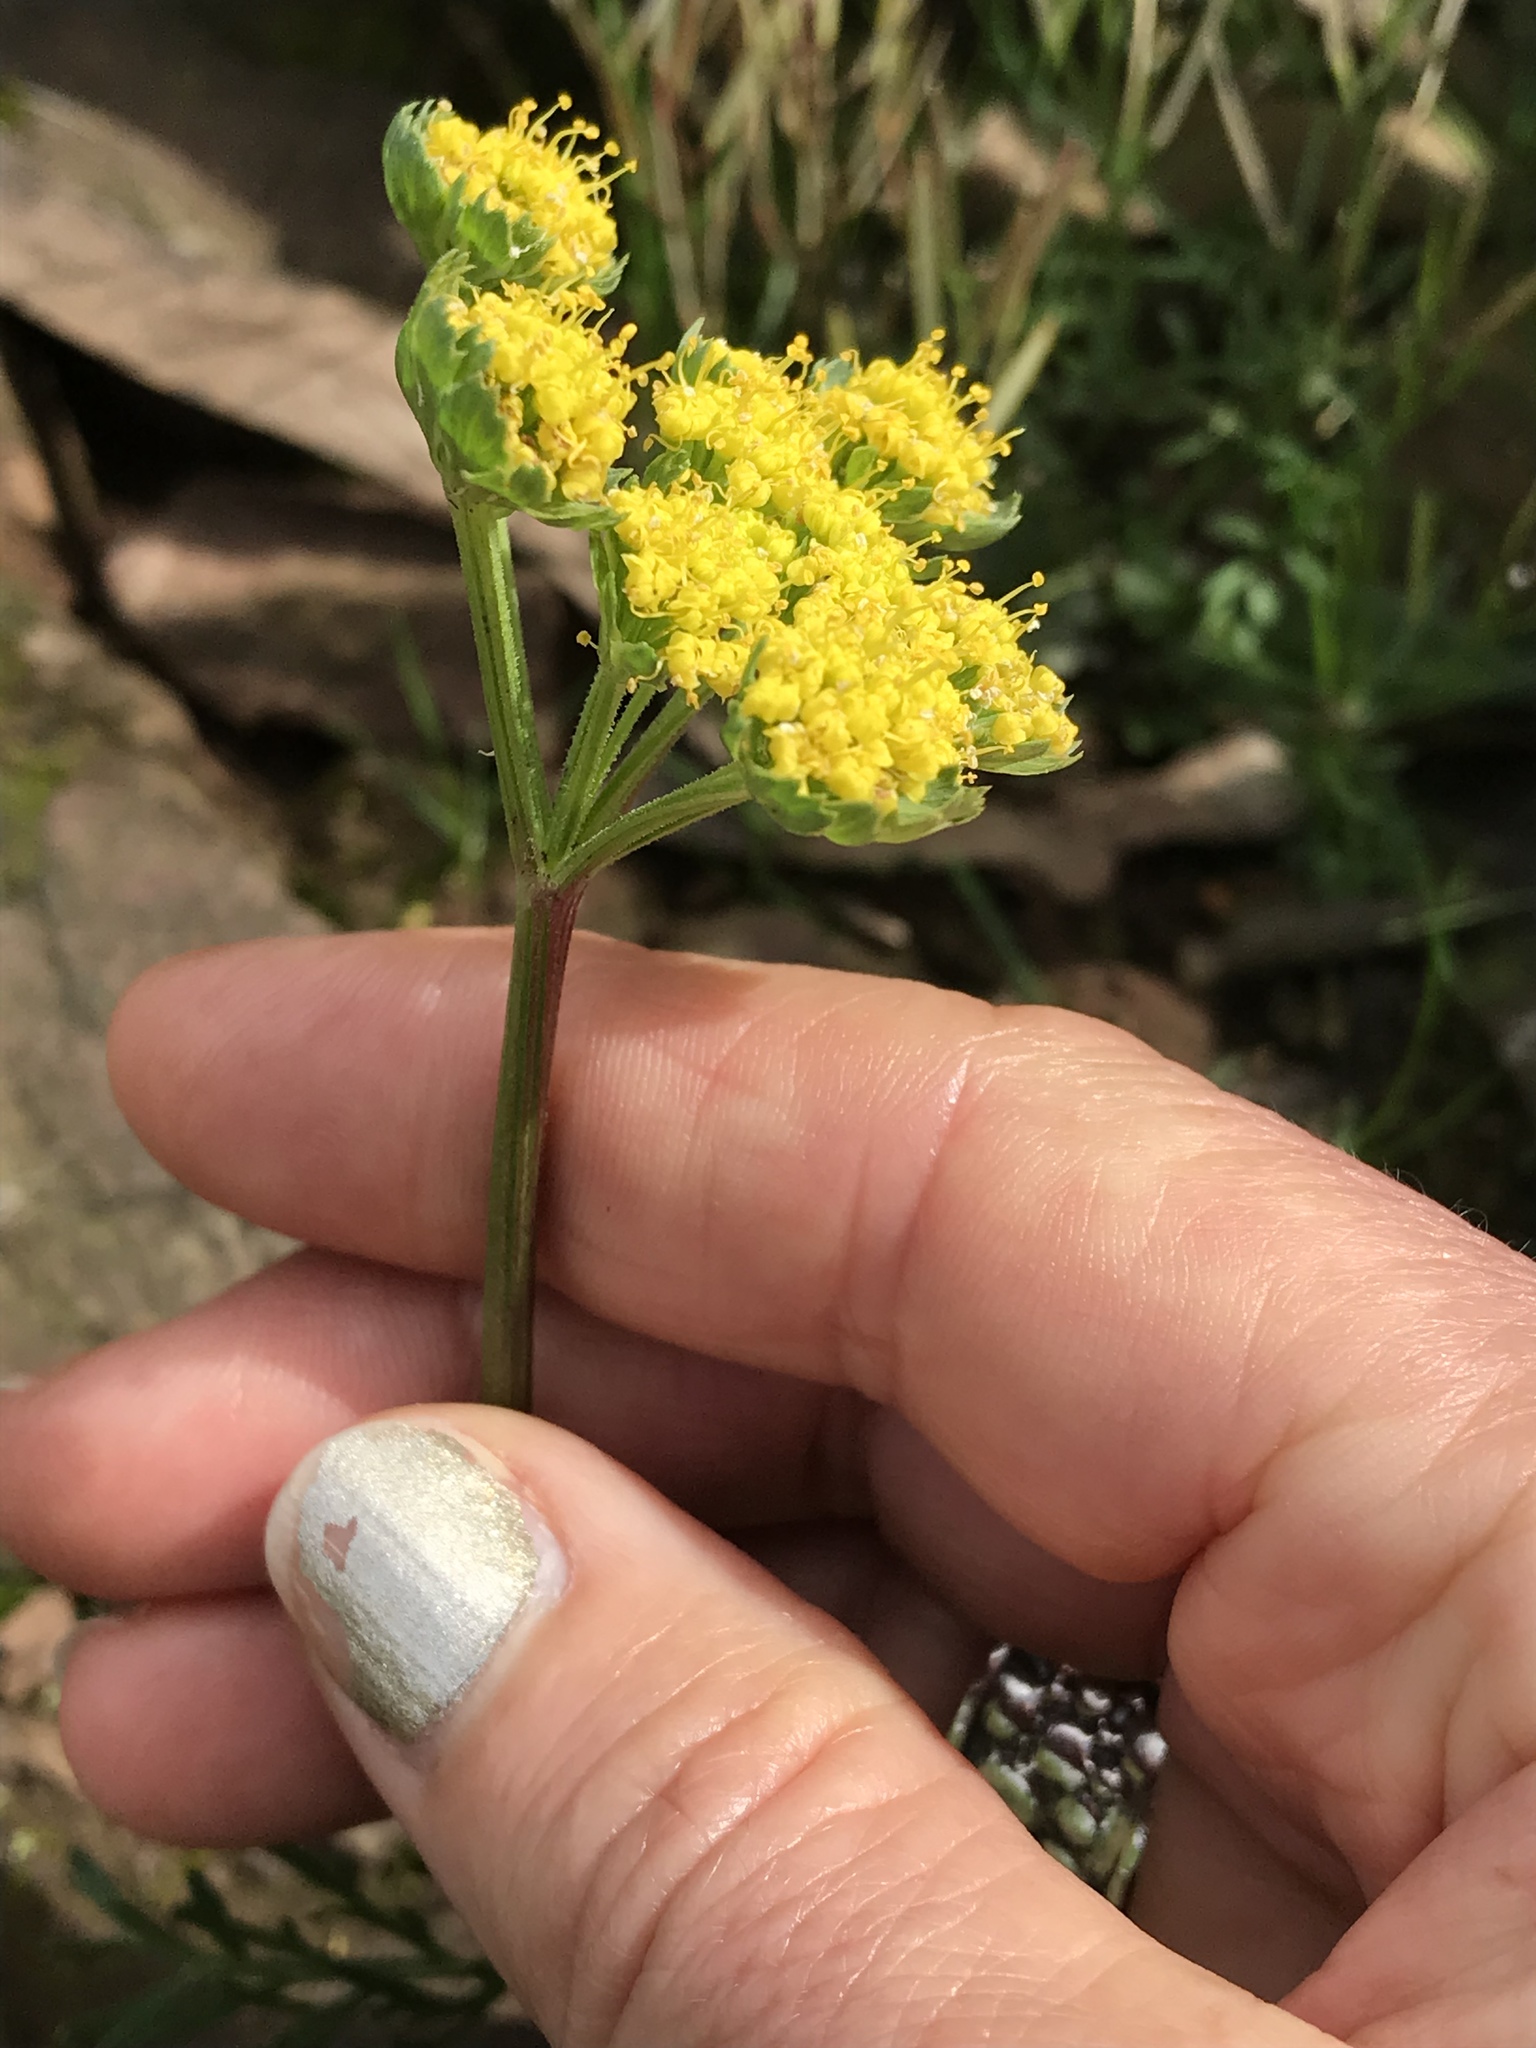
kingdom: Plantae
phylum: Tracheophyta
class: Magnoliopsida
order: Apiales
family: Apiaceae
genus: Lomatium
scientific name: Lomatium caruifolium
